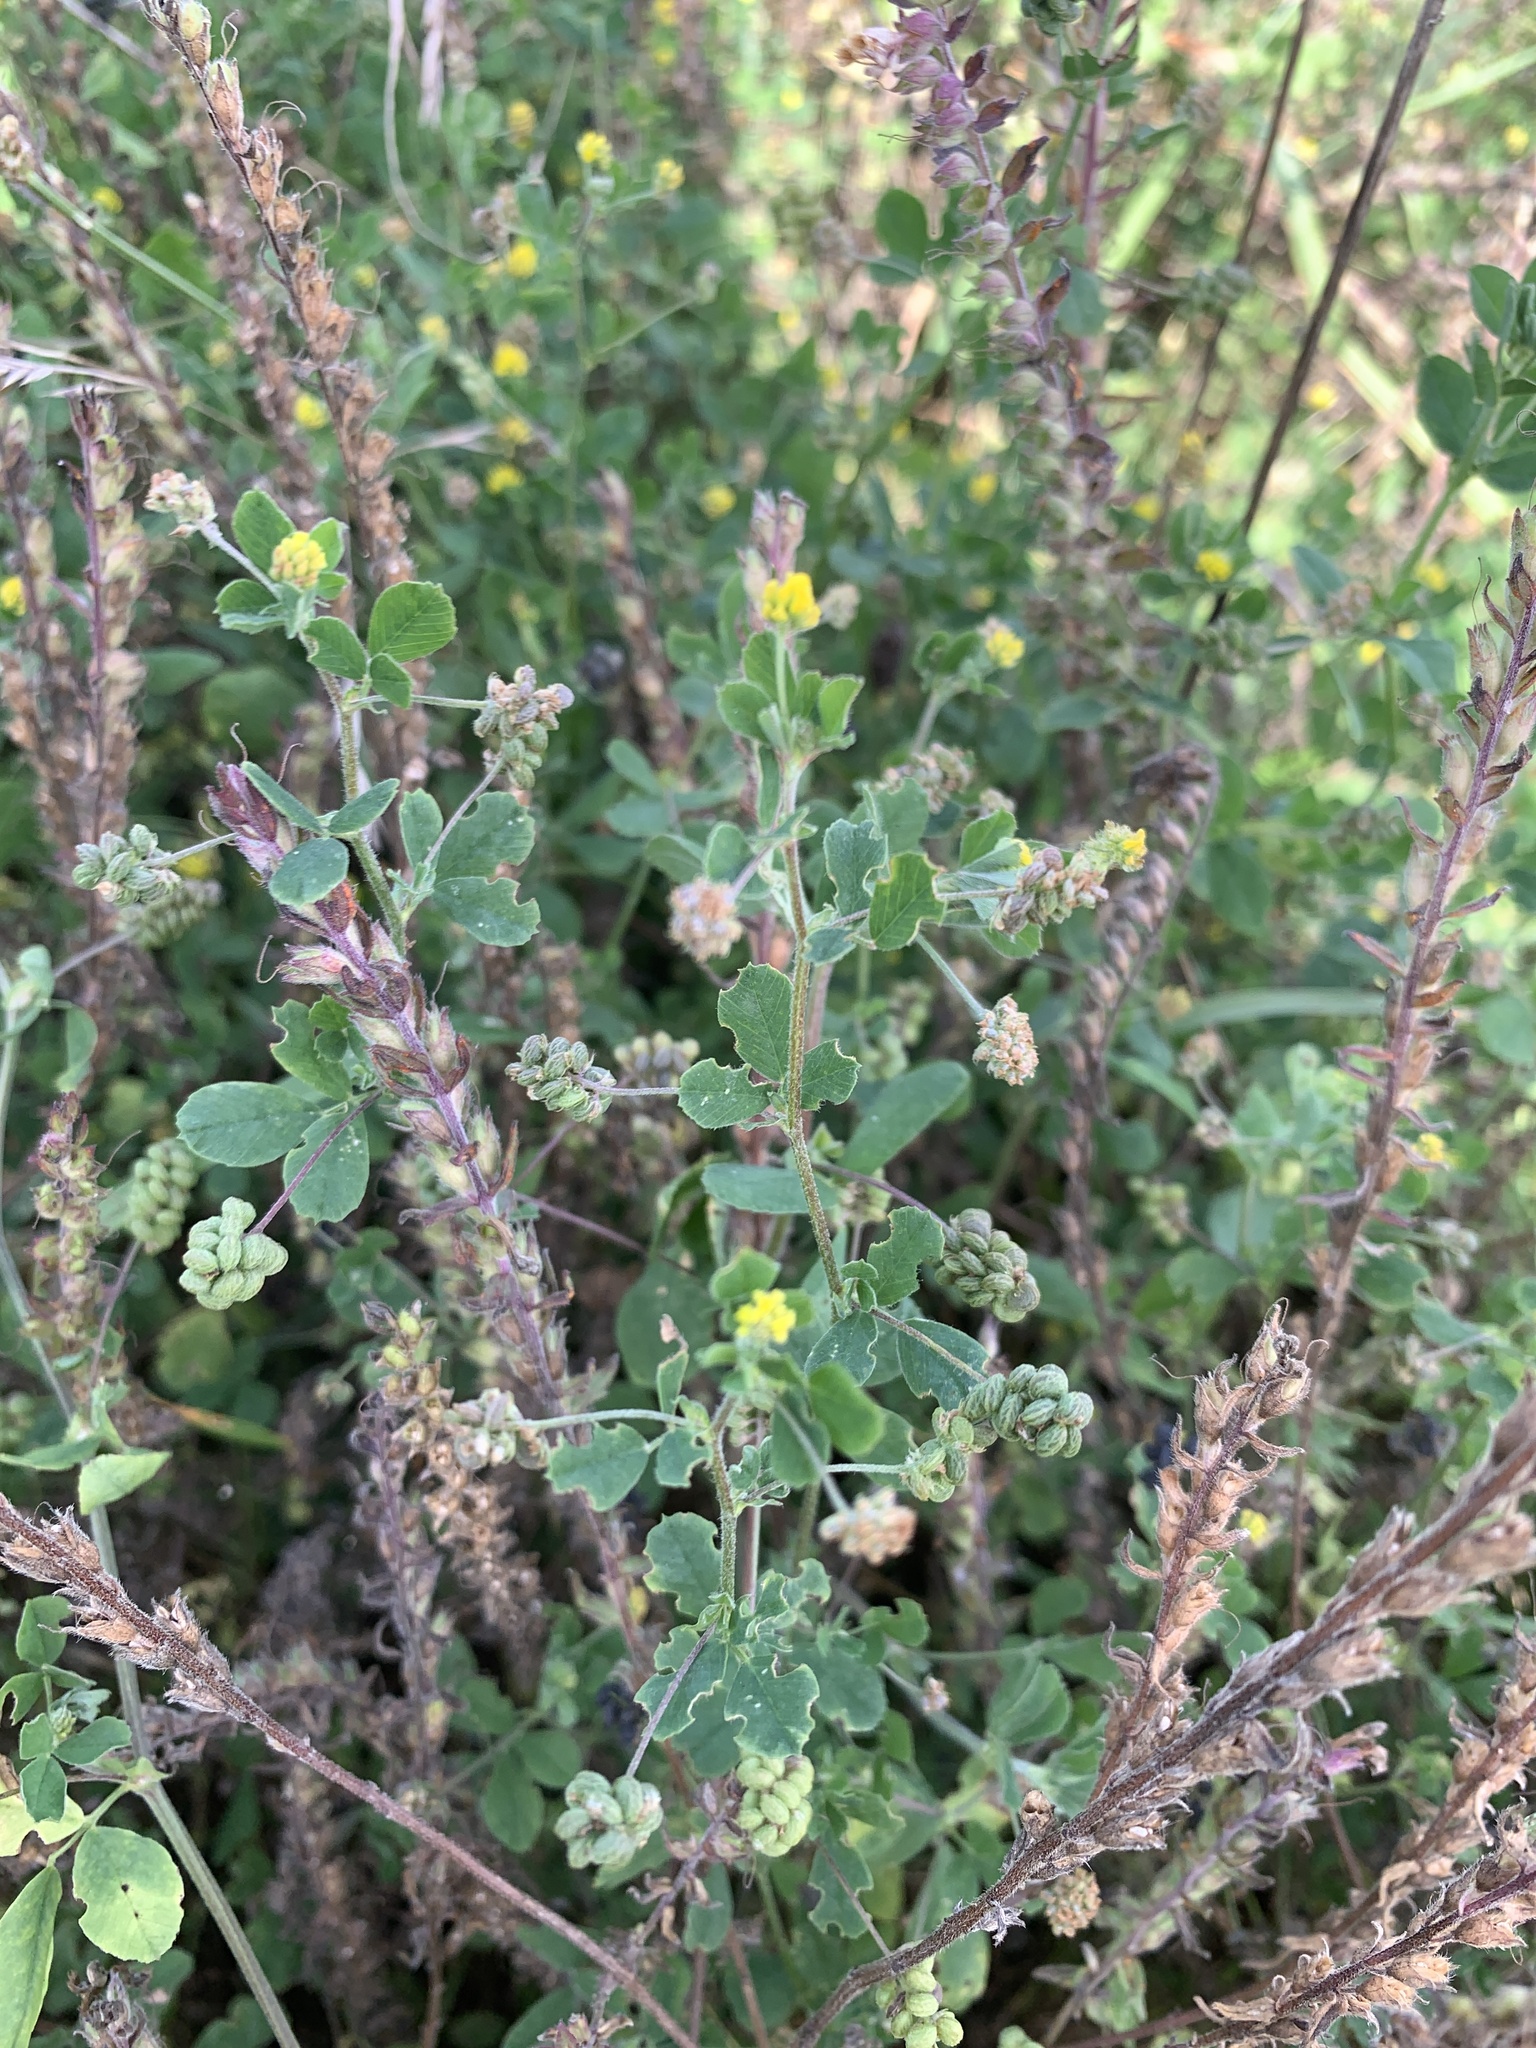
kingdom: Plantae
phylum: Tracheophyta
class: Magnoliopsida
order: Fabales
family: Fabaceae
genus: Medicago
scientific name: Medicago lupulina
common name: Black medick
